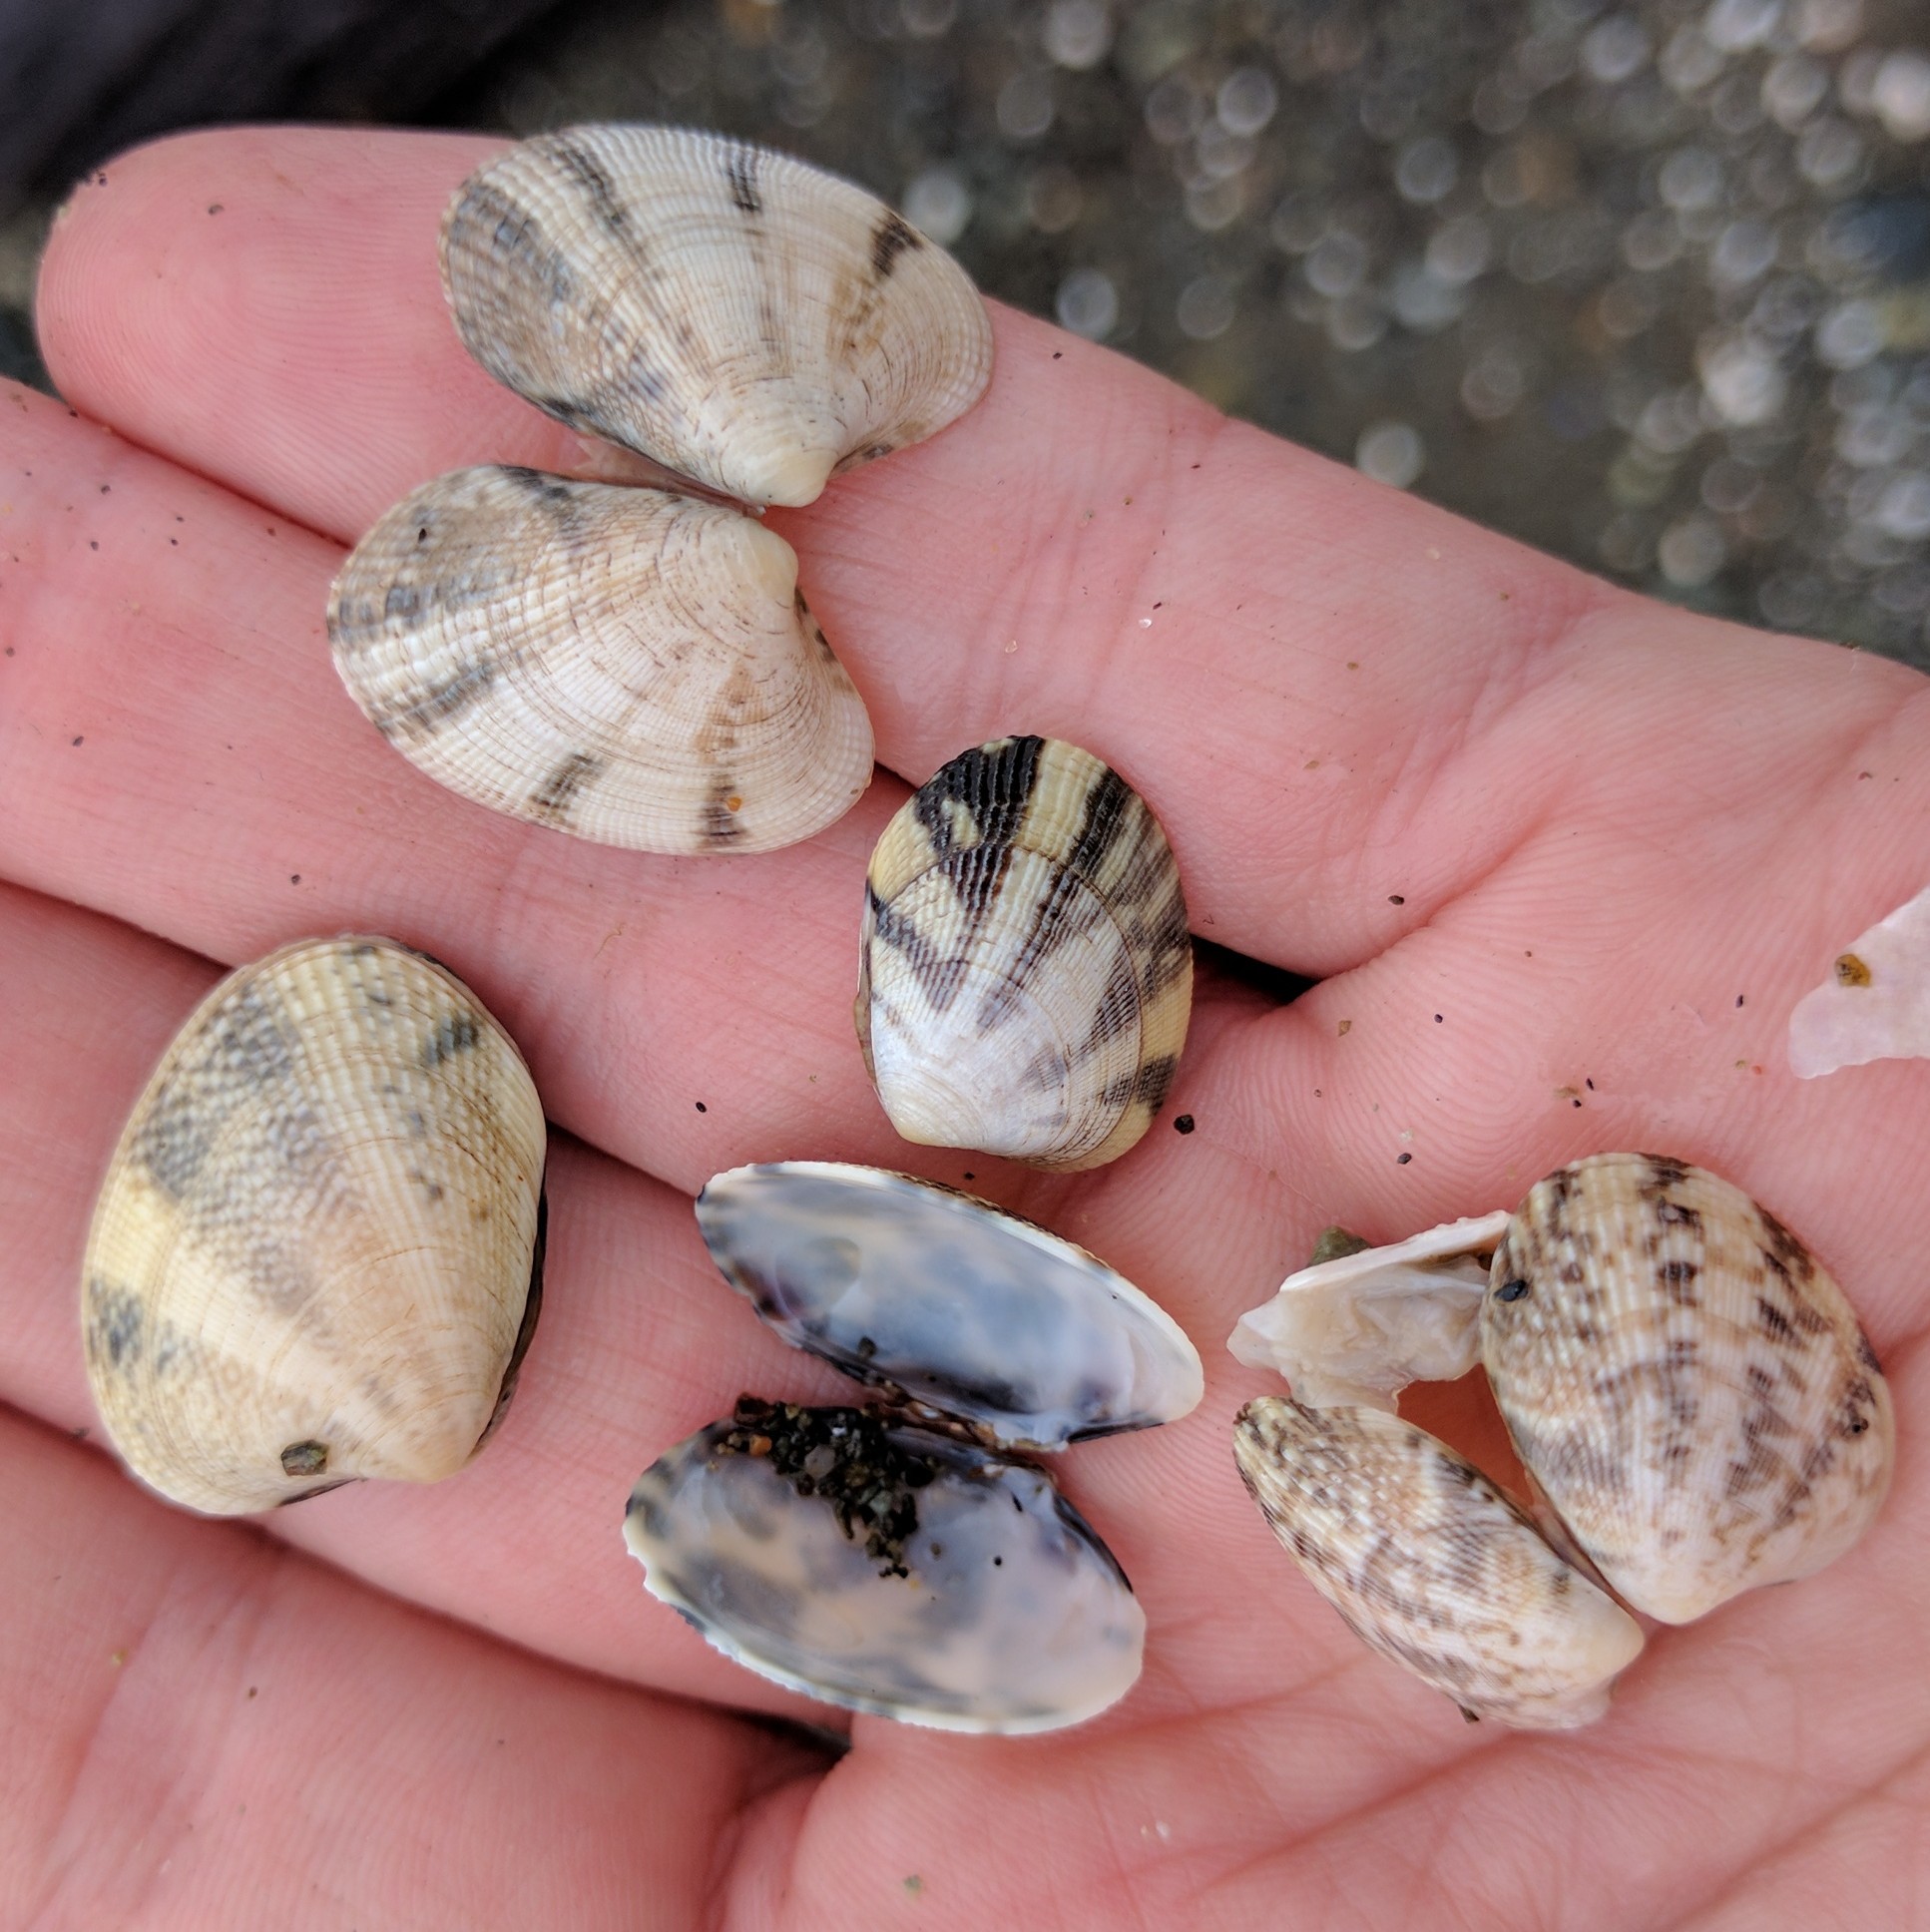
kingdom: Animalia
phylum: Mollusca
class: Bivalvia
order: Venerida
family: Veneridae
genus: Ruditapes
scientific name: Ruditapes philippinarum
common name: Manila clam
